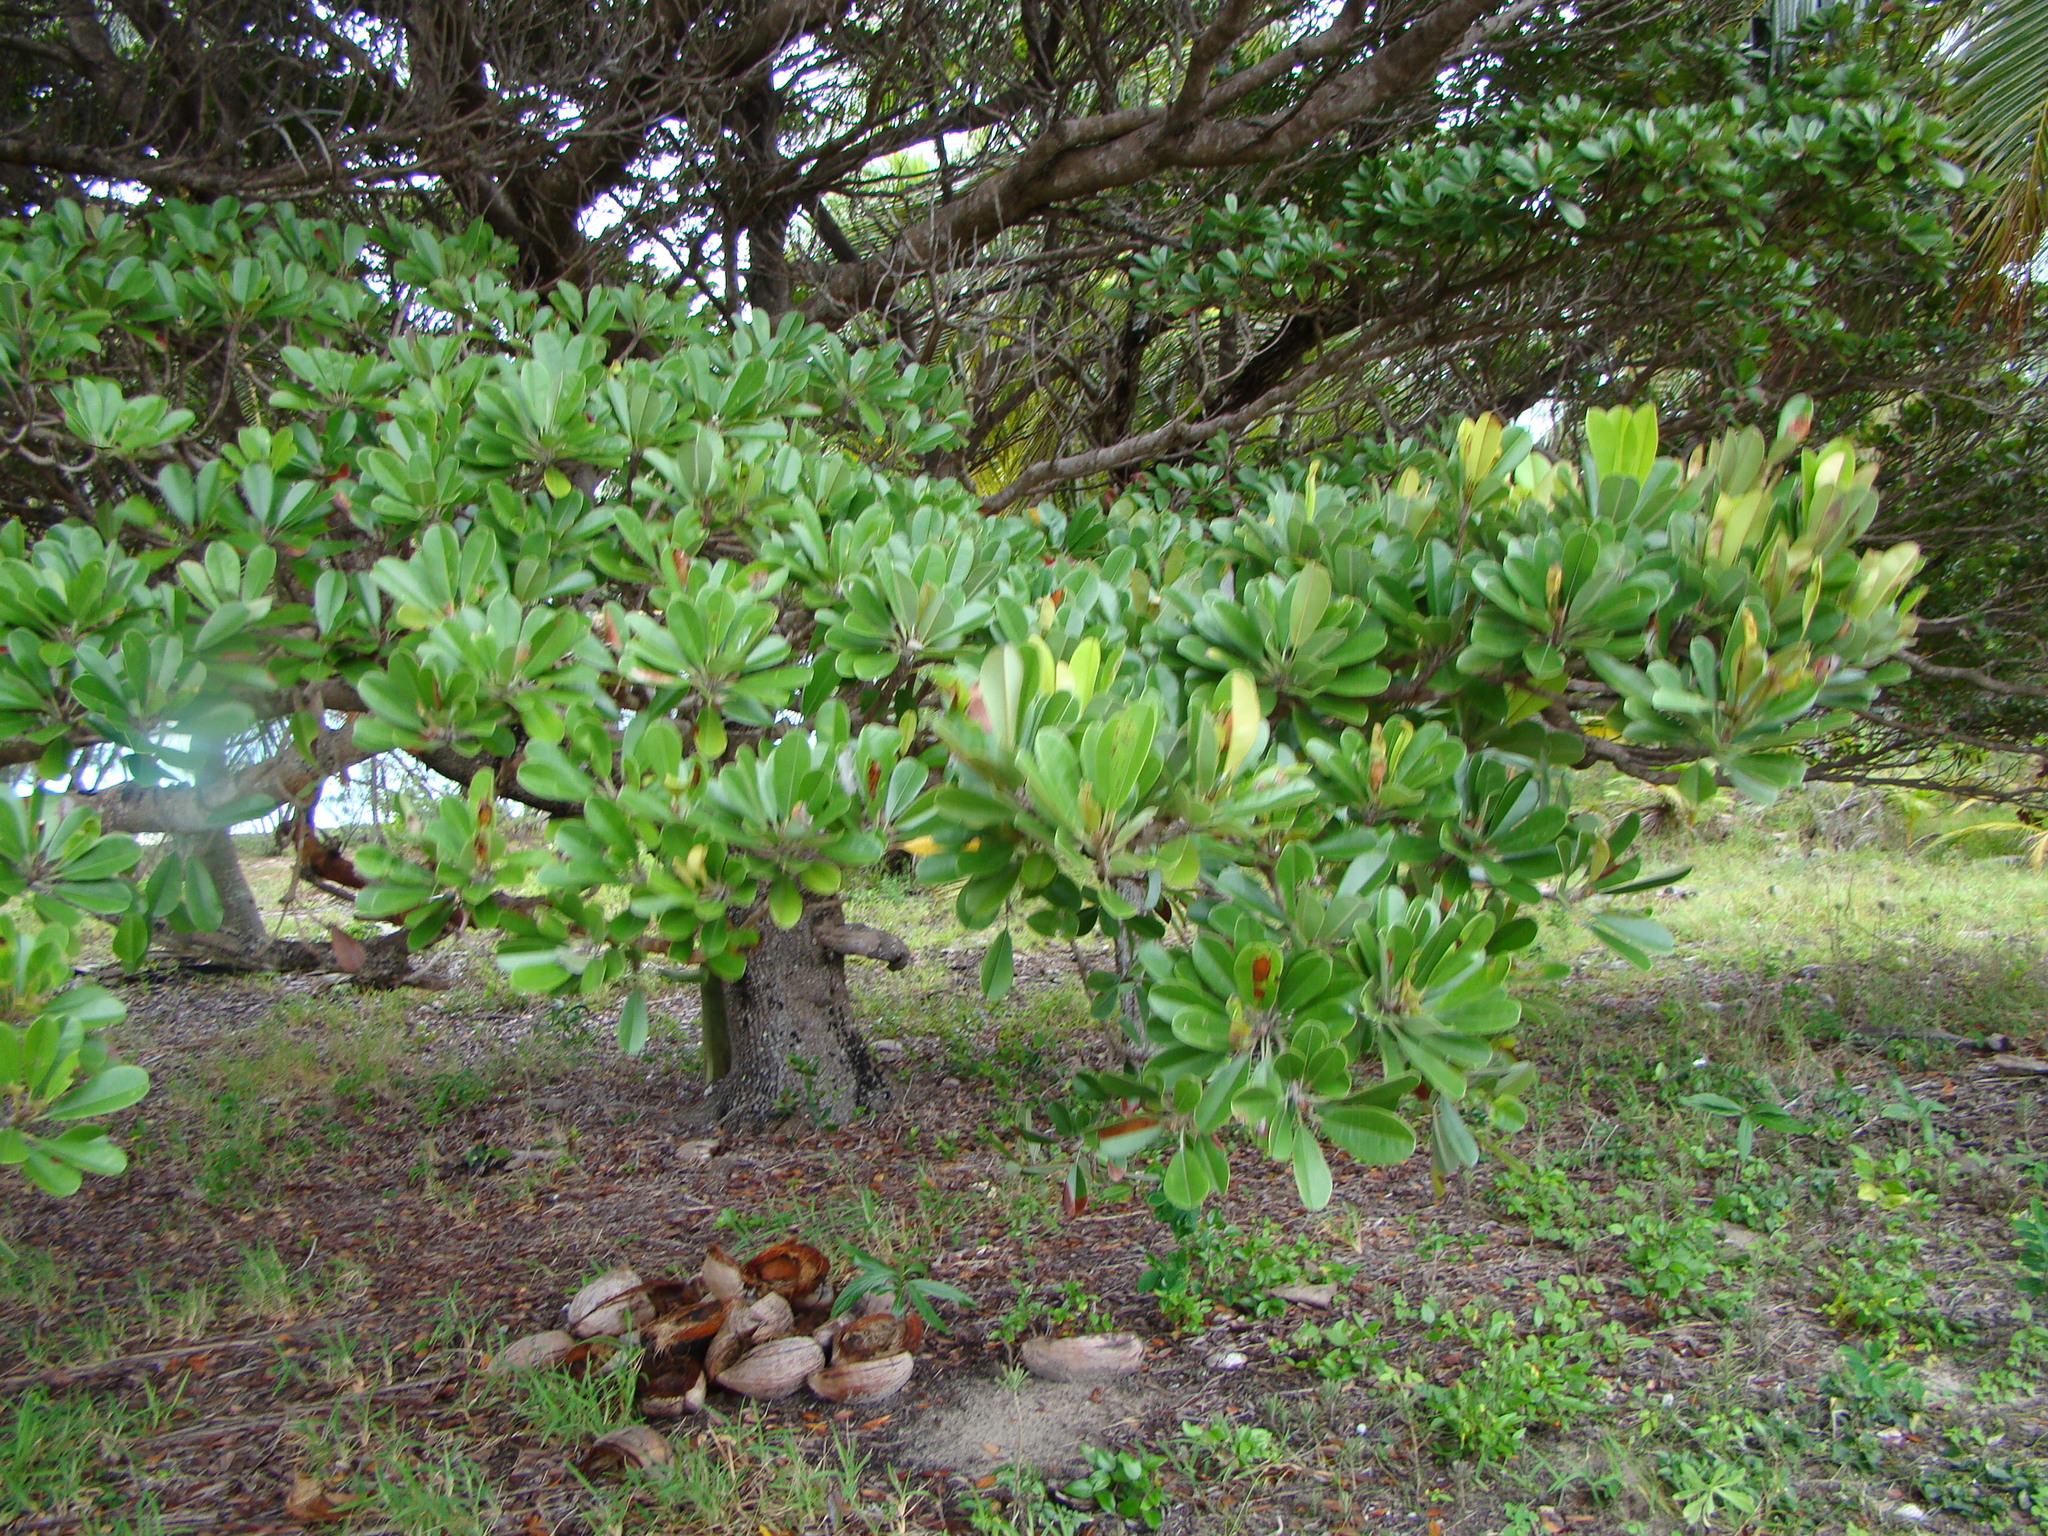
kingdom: Plantae
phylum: Tracheophyta
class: Magnoliopsida
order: Ericales
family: Sapotaceae
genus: Manilkara
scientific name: Manilkara dissecta
